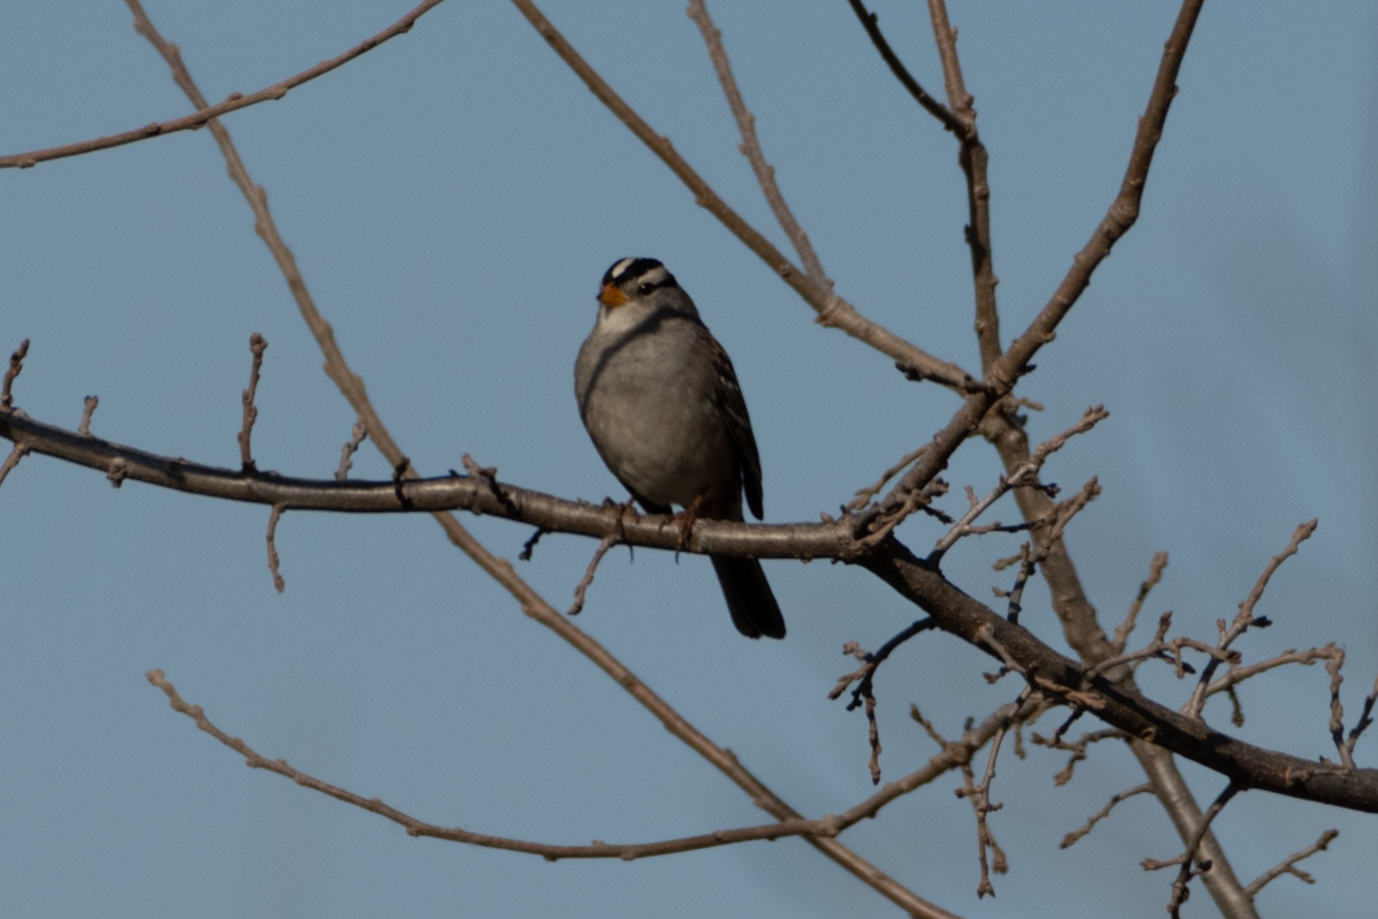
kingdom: Animalia
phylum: Chordata
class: Aves
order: Passeriformes
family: Passerellidae
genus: Zonotrichia
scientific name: Zonotrichia leucophrys
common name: White-crowned sparrow
